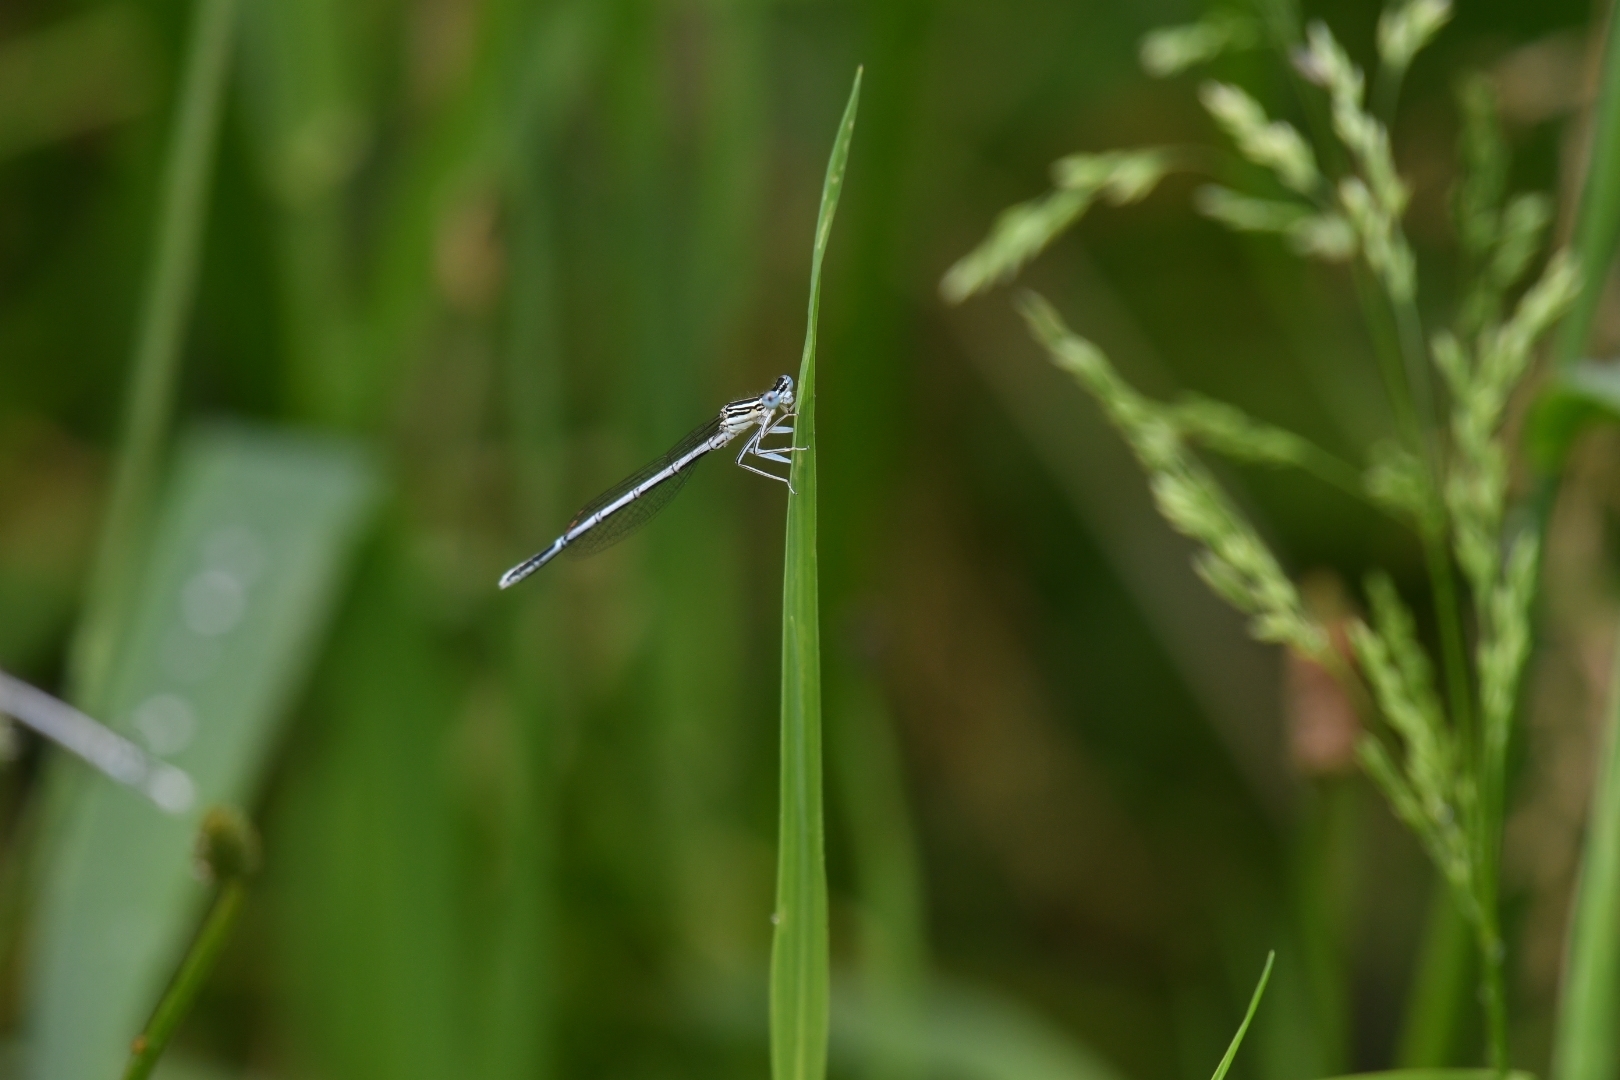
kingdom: Animalia
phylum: Arthropoda
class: Insecta
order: Odonata
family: Platycnemididae
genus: Platycnemis
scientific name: Platycnemis pennipes
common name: White-legged damselfly
